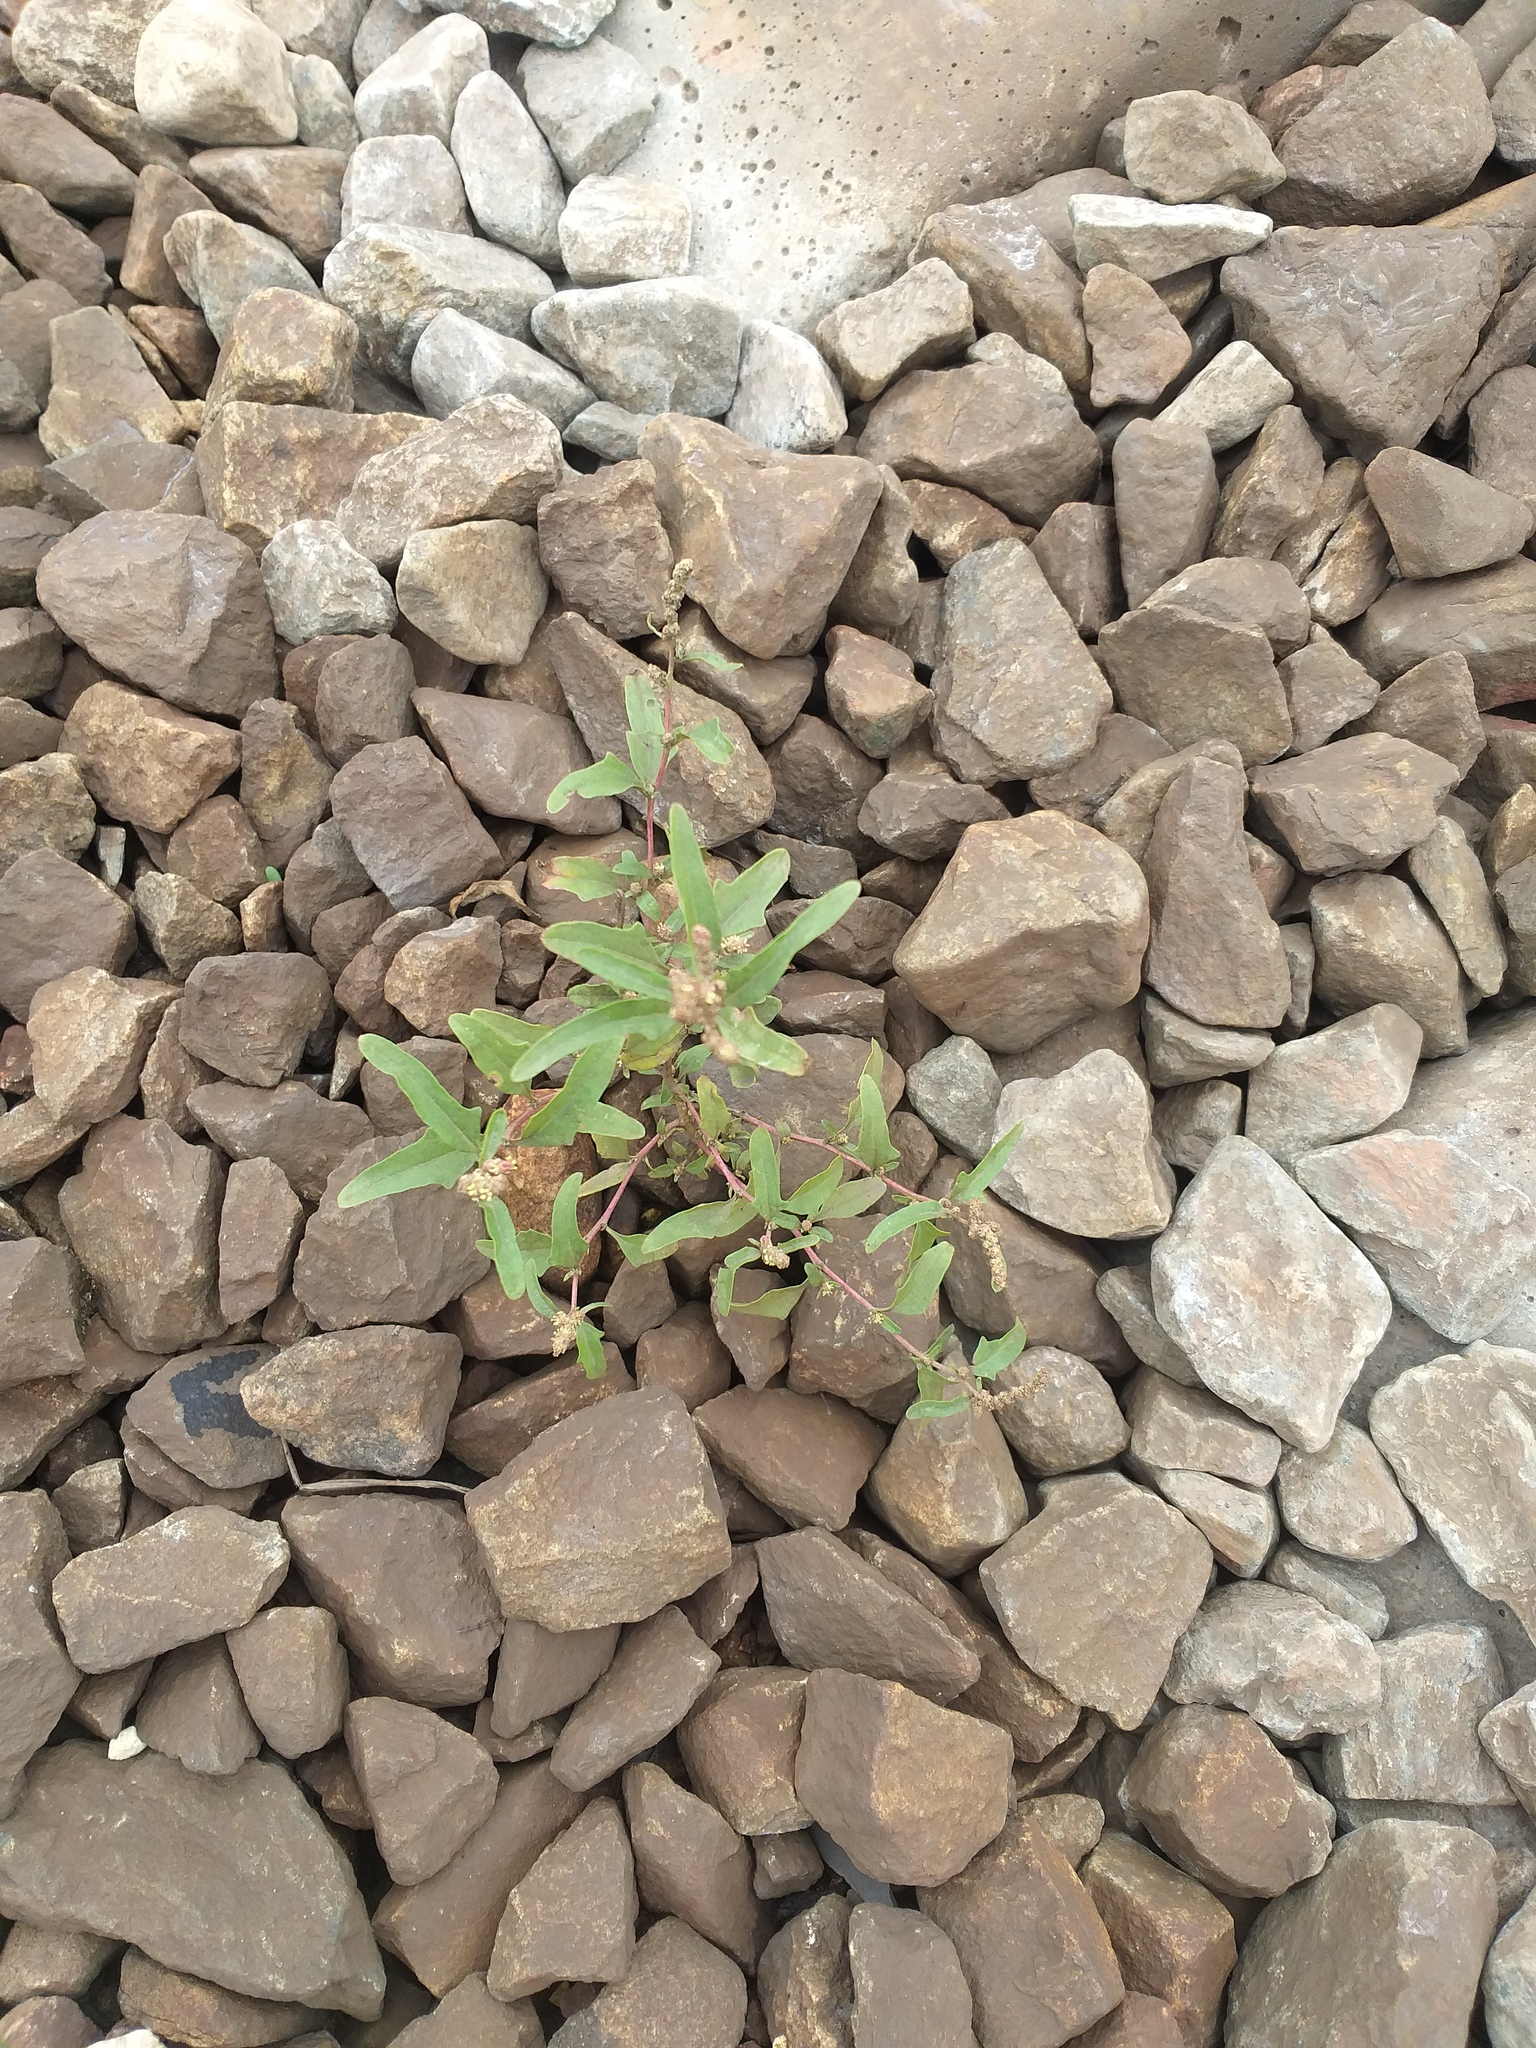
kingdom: Plantae
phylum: Tracheophyta
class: Magnoliopsida
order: Caryophyllales
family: Amaranthaceae
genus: Atriplex
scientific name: Atriplex tatarica
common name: Tatarian orache
